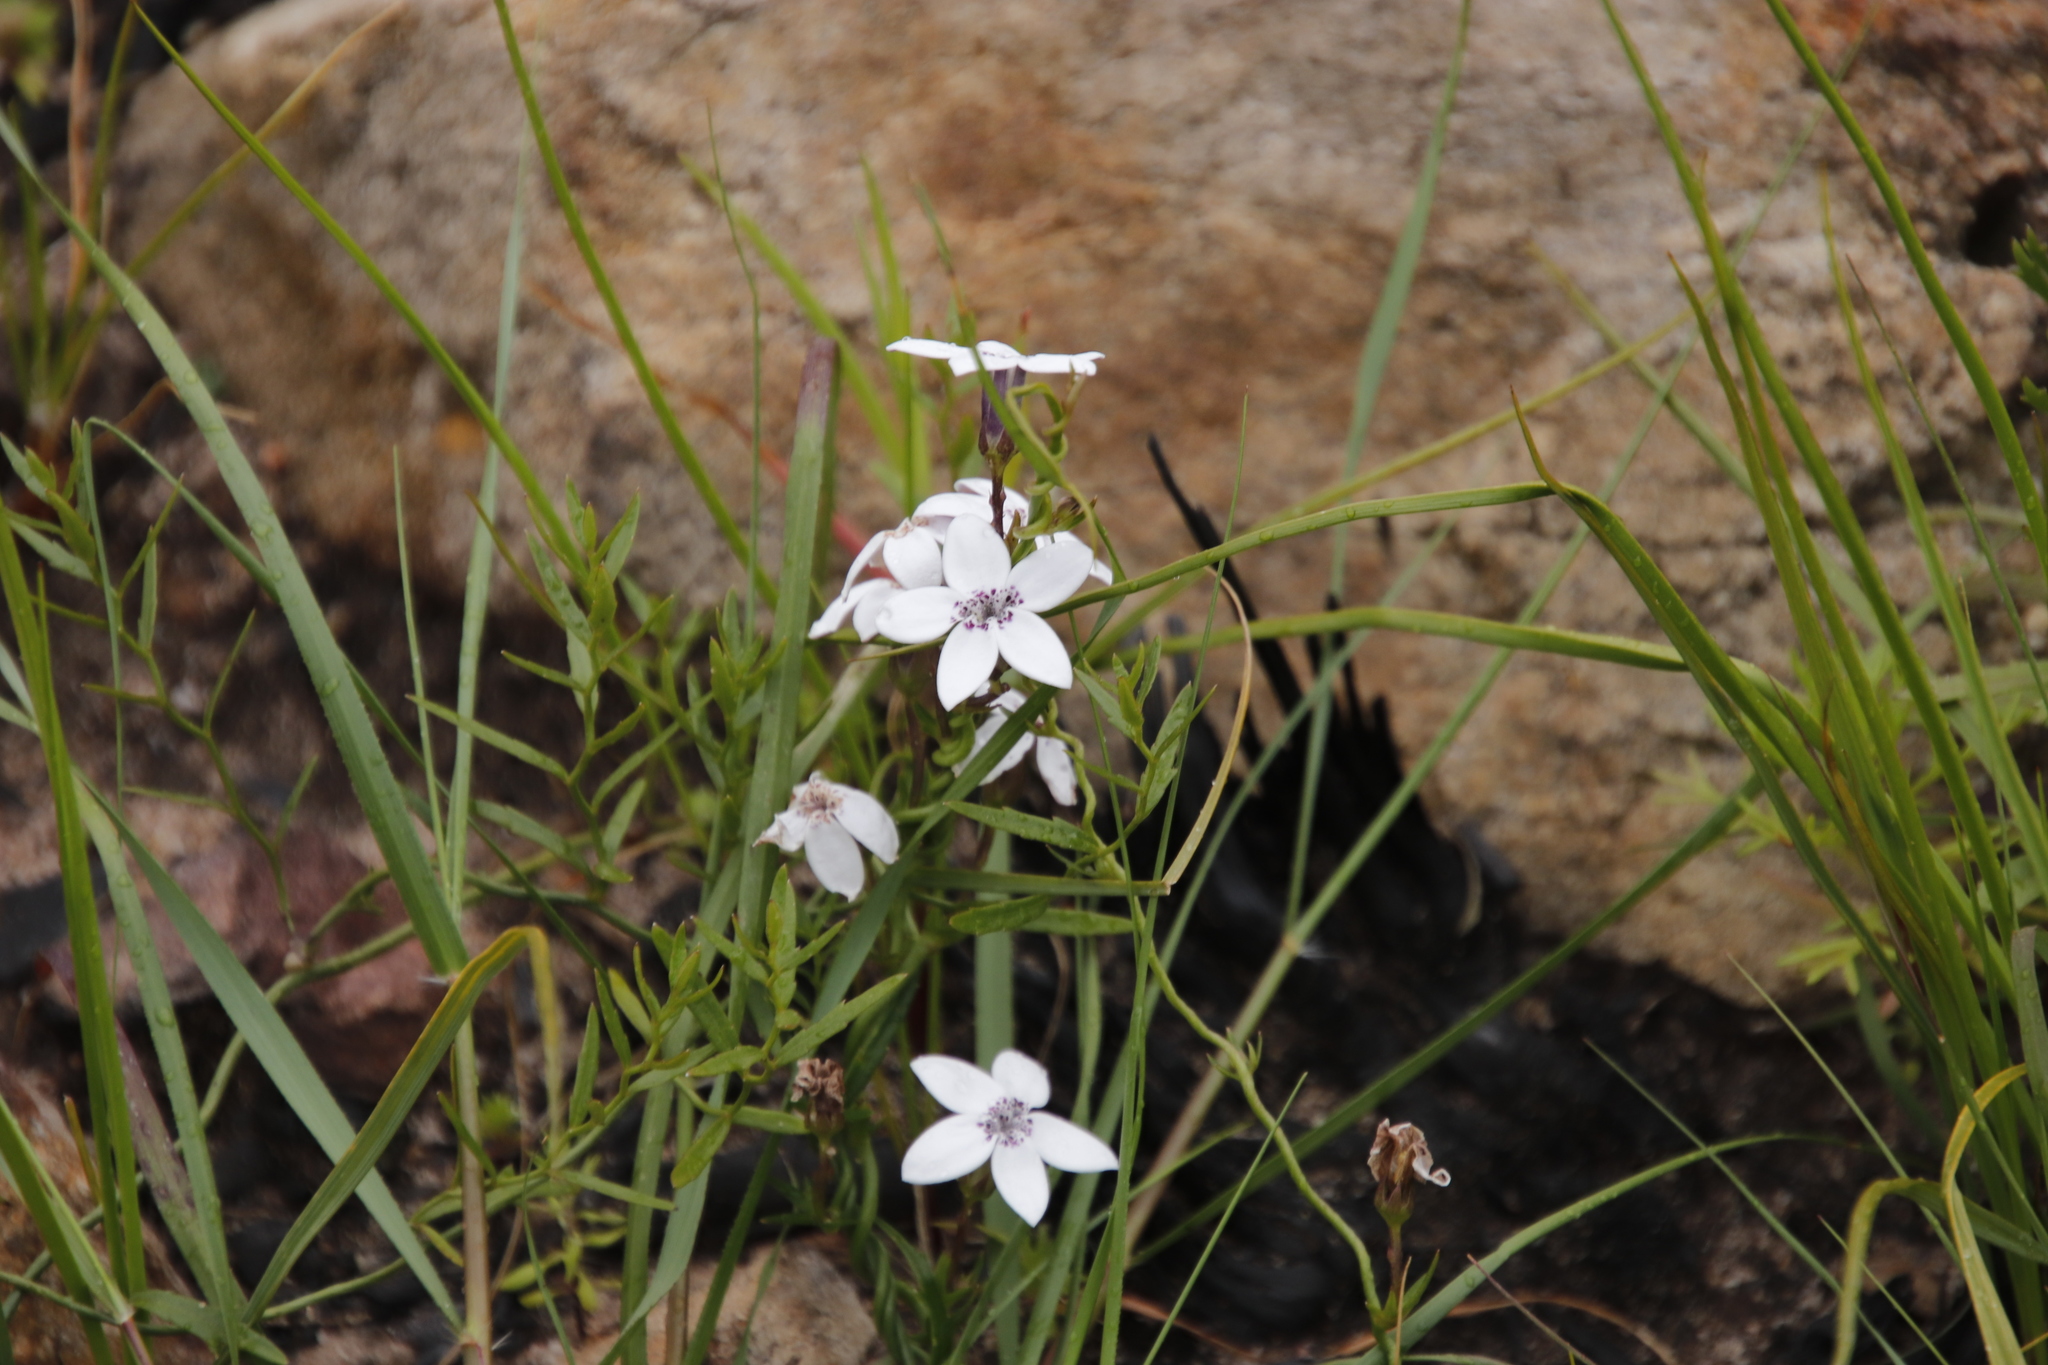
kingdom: Plantae
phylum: Tracheophyta
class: Magnoliopsida
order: Asterales
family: Campanulaceae
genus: Cyphia
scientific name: Cyphia volubilis
